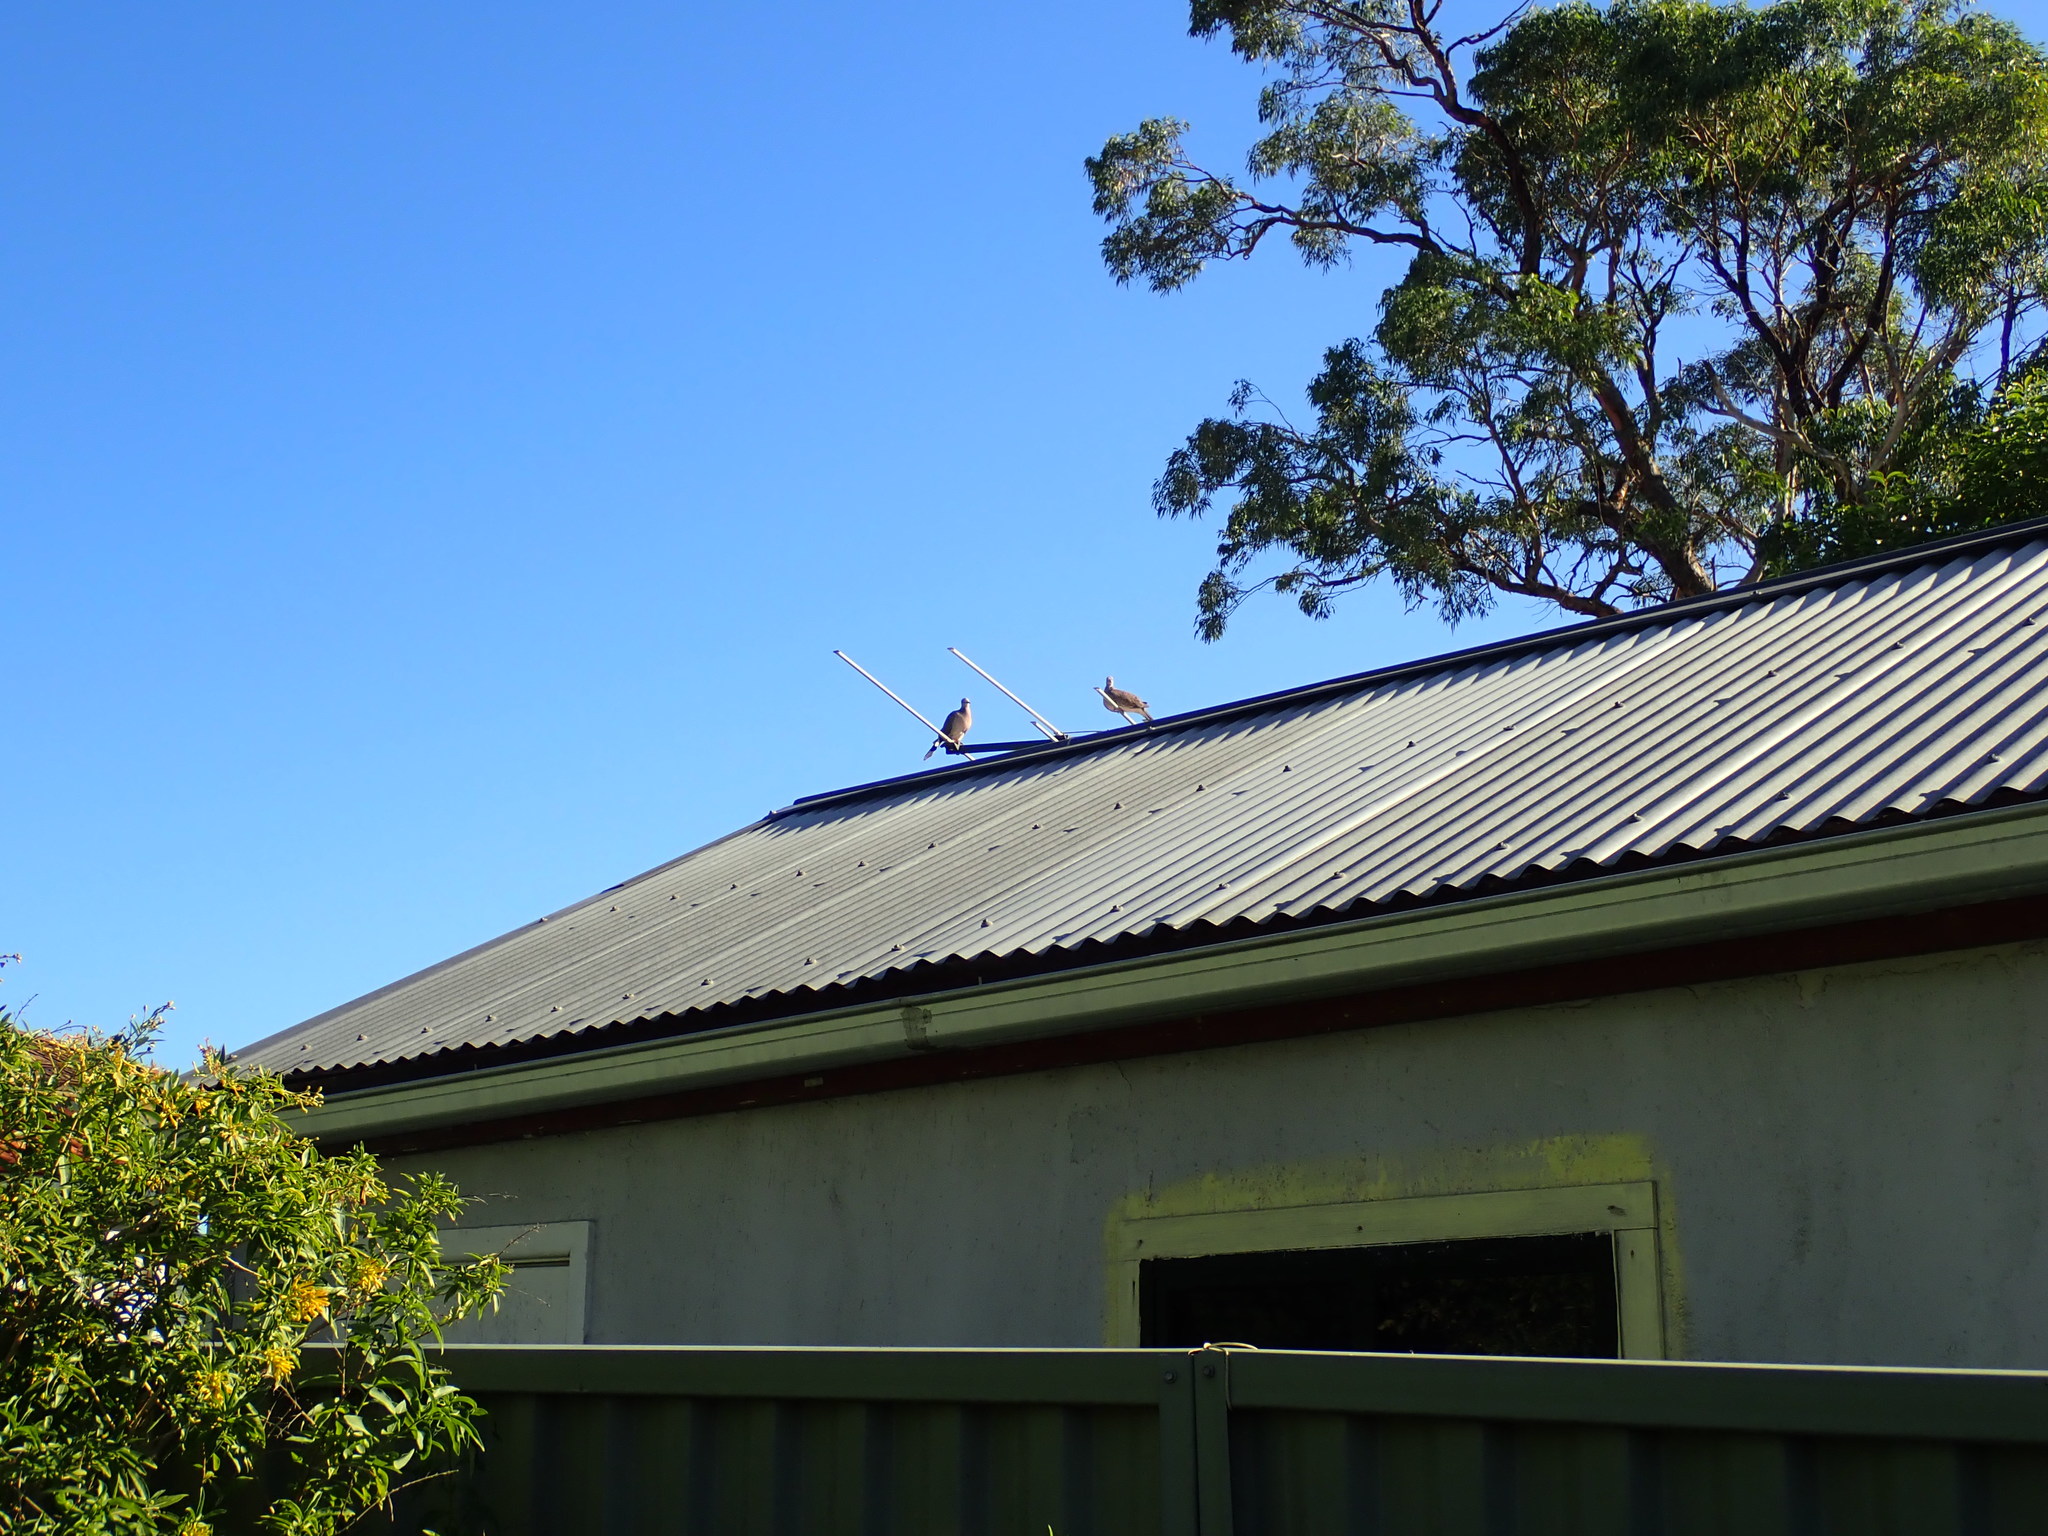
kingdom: Animalia
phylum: Chordata
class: Aves
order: Columbiformes
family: Columbidae
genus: Spilopelia
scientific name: Spilopelia chinensis
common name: Spotted dove
